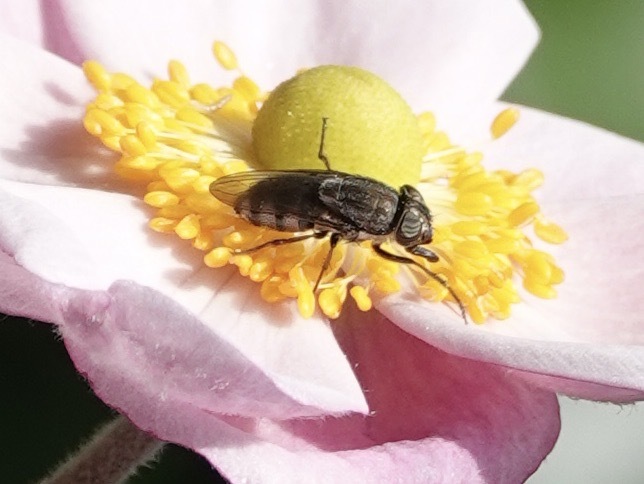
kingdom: Animalia
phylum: Arthropoda
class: Insecta
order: Diptera
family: Calliphoridae
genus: Stomorhina
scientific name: Stomorhina lunata
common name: Locust blowfly
